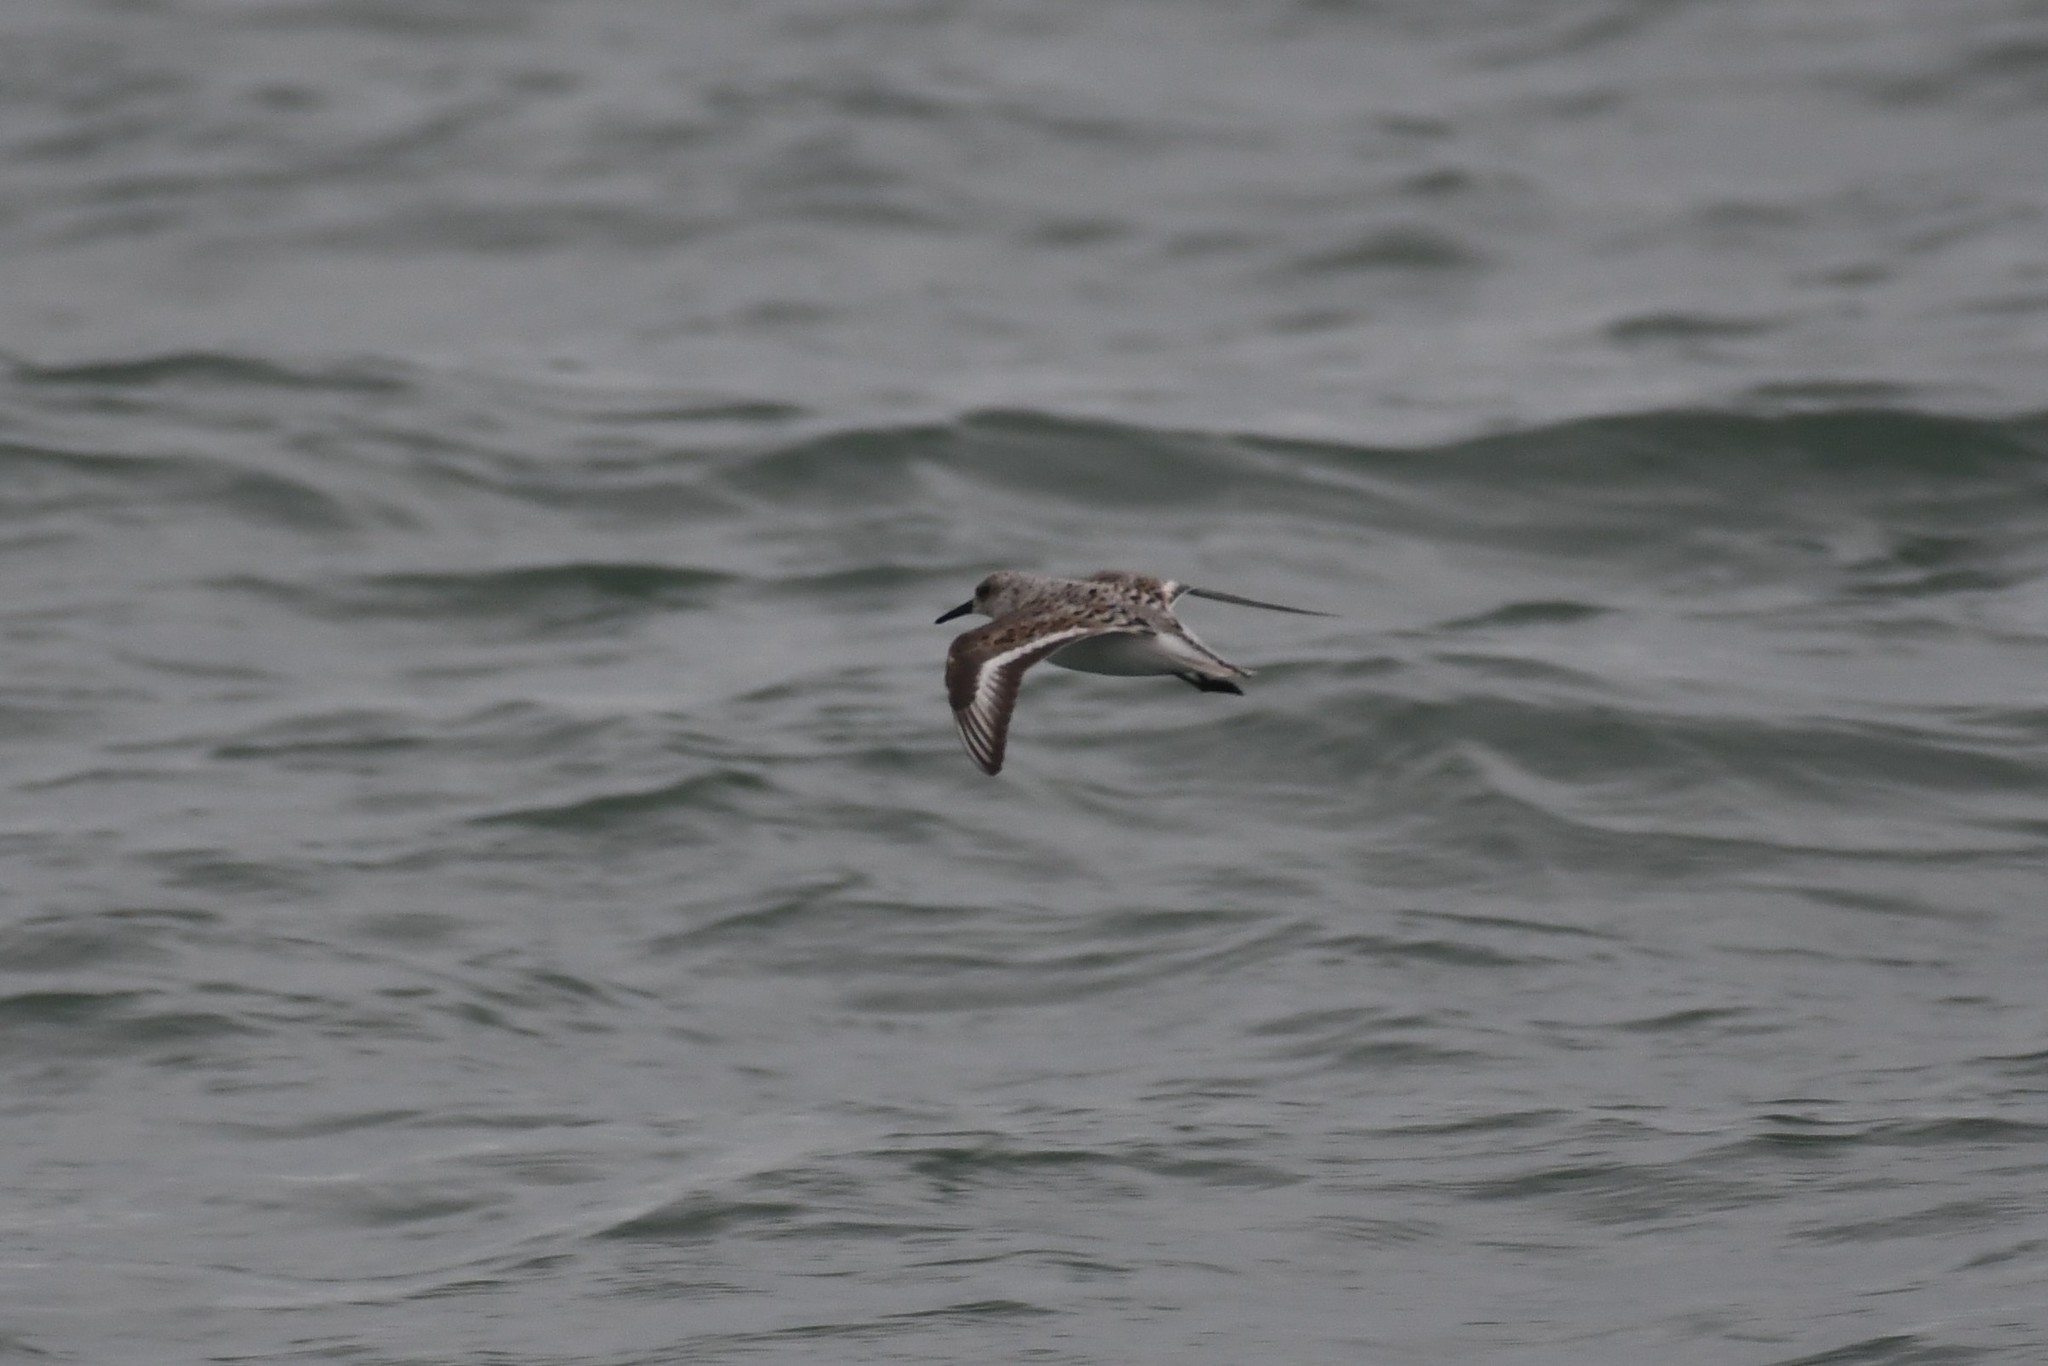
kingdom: Animalia
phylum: Chordata
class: Aves
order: Charadriiformes
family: Scolopacidae
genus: Calidris
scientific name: Calidris alba
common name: Sanderling
